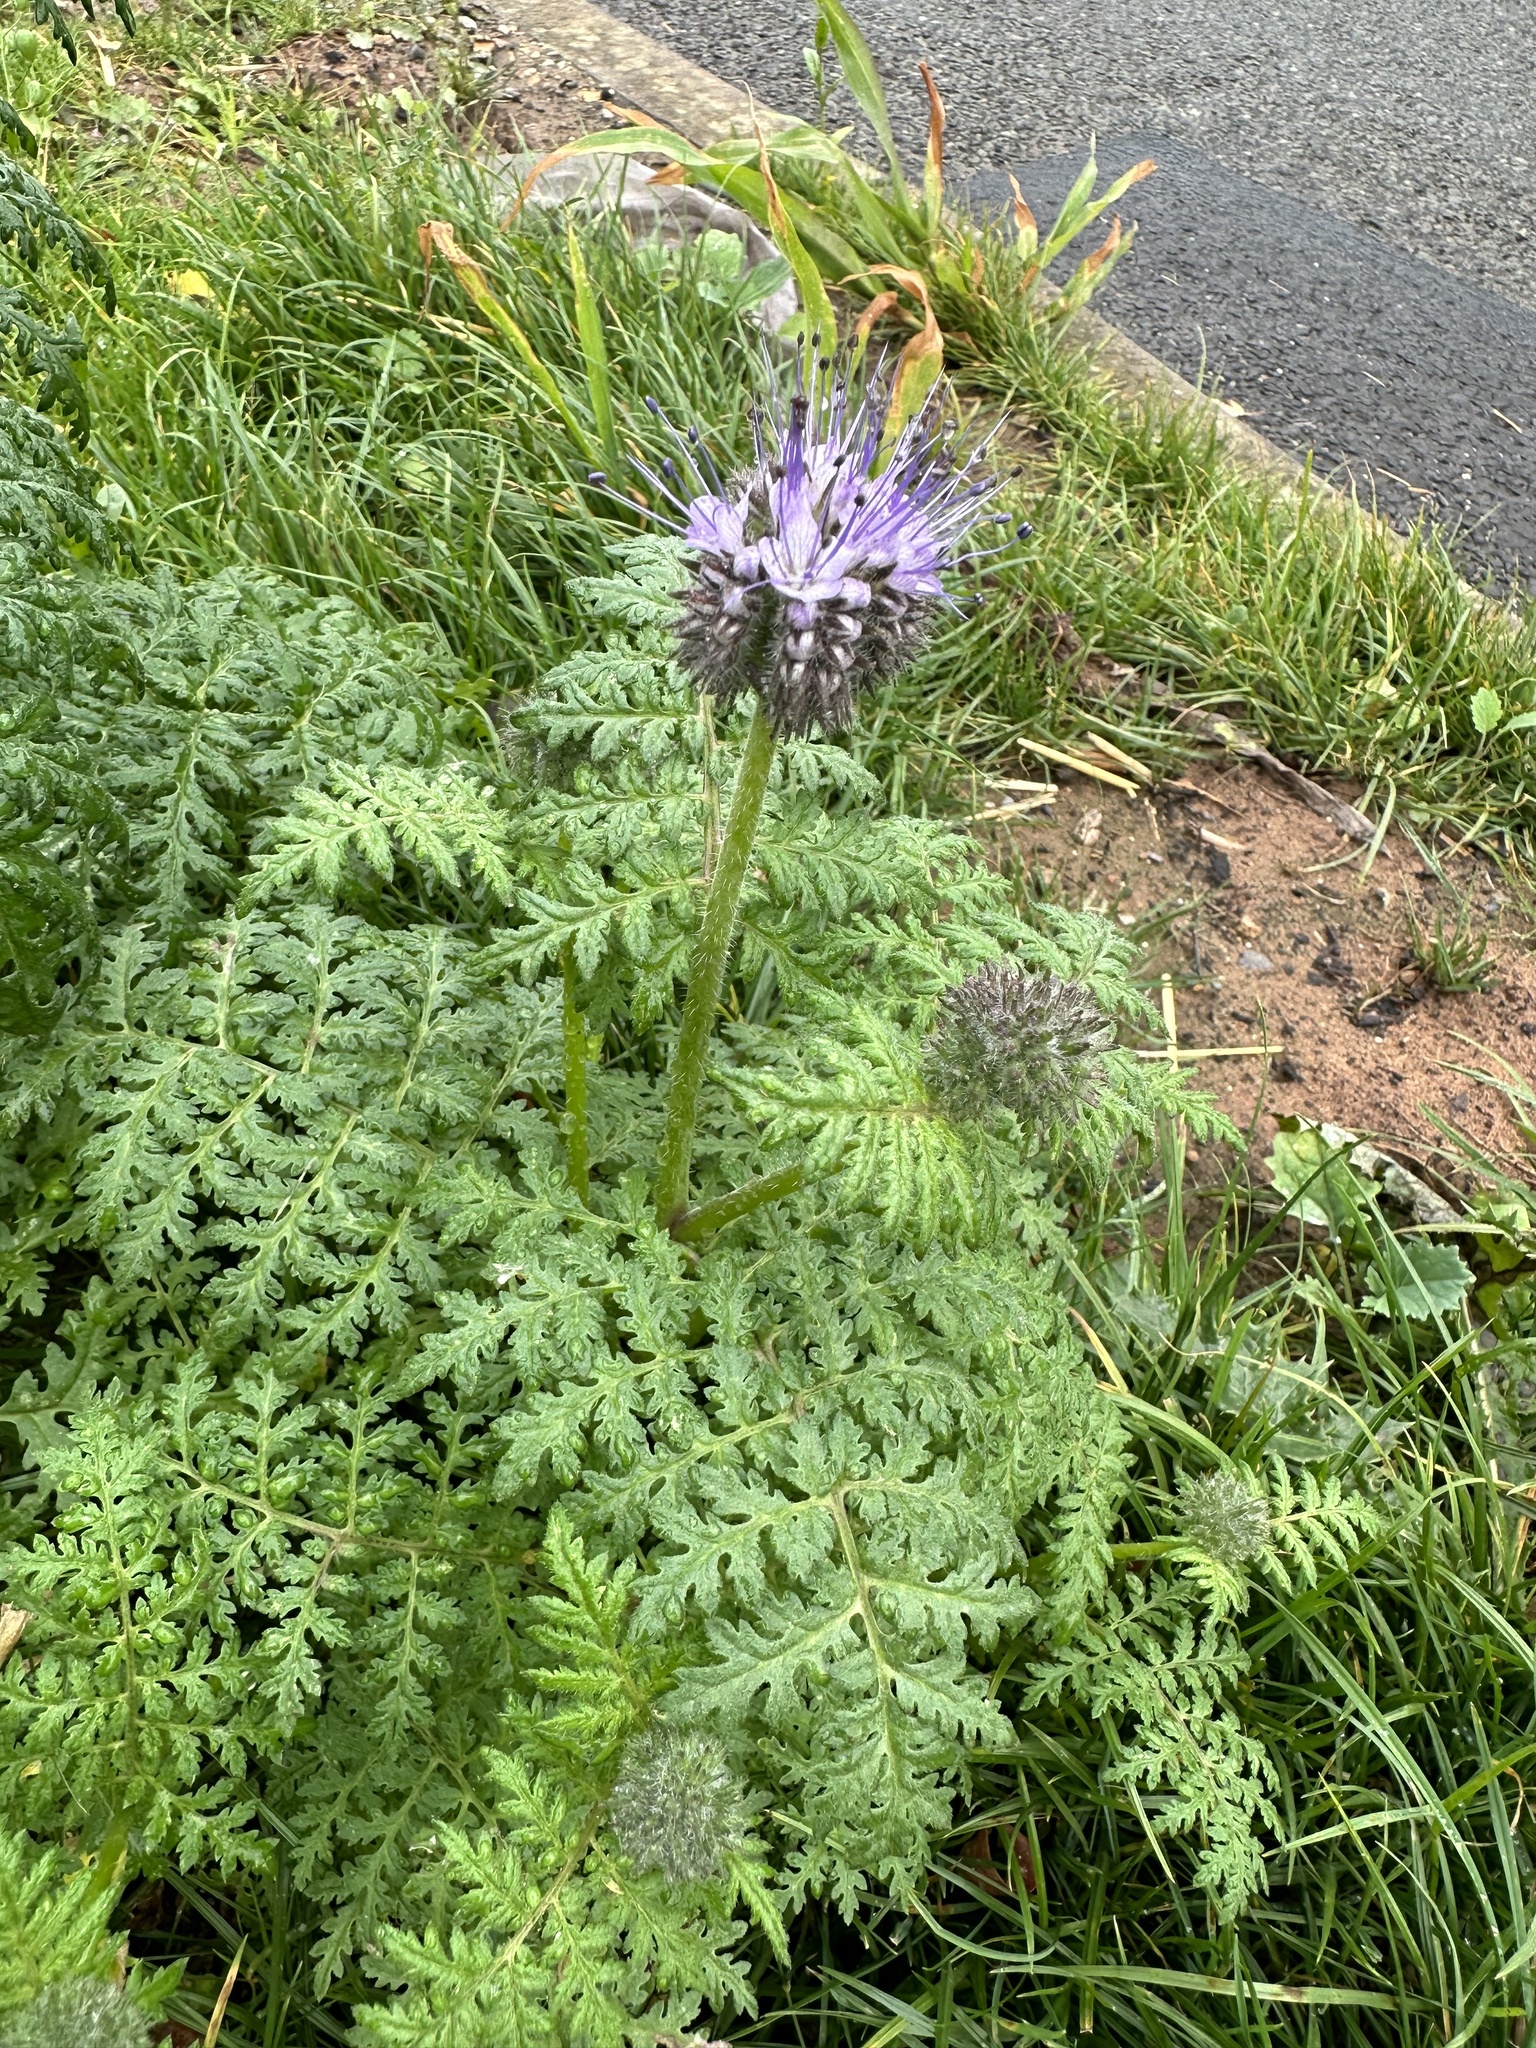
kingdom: Plantae
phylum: Tracheophyta
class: Magnoliopsida
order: Boraginales
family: Hydrophyllaceae
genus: Phacelia
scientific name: Phacelia tanacetifolia
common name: Phacelia
